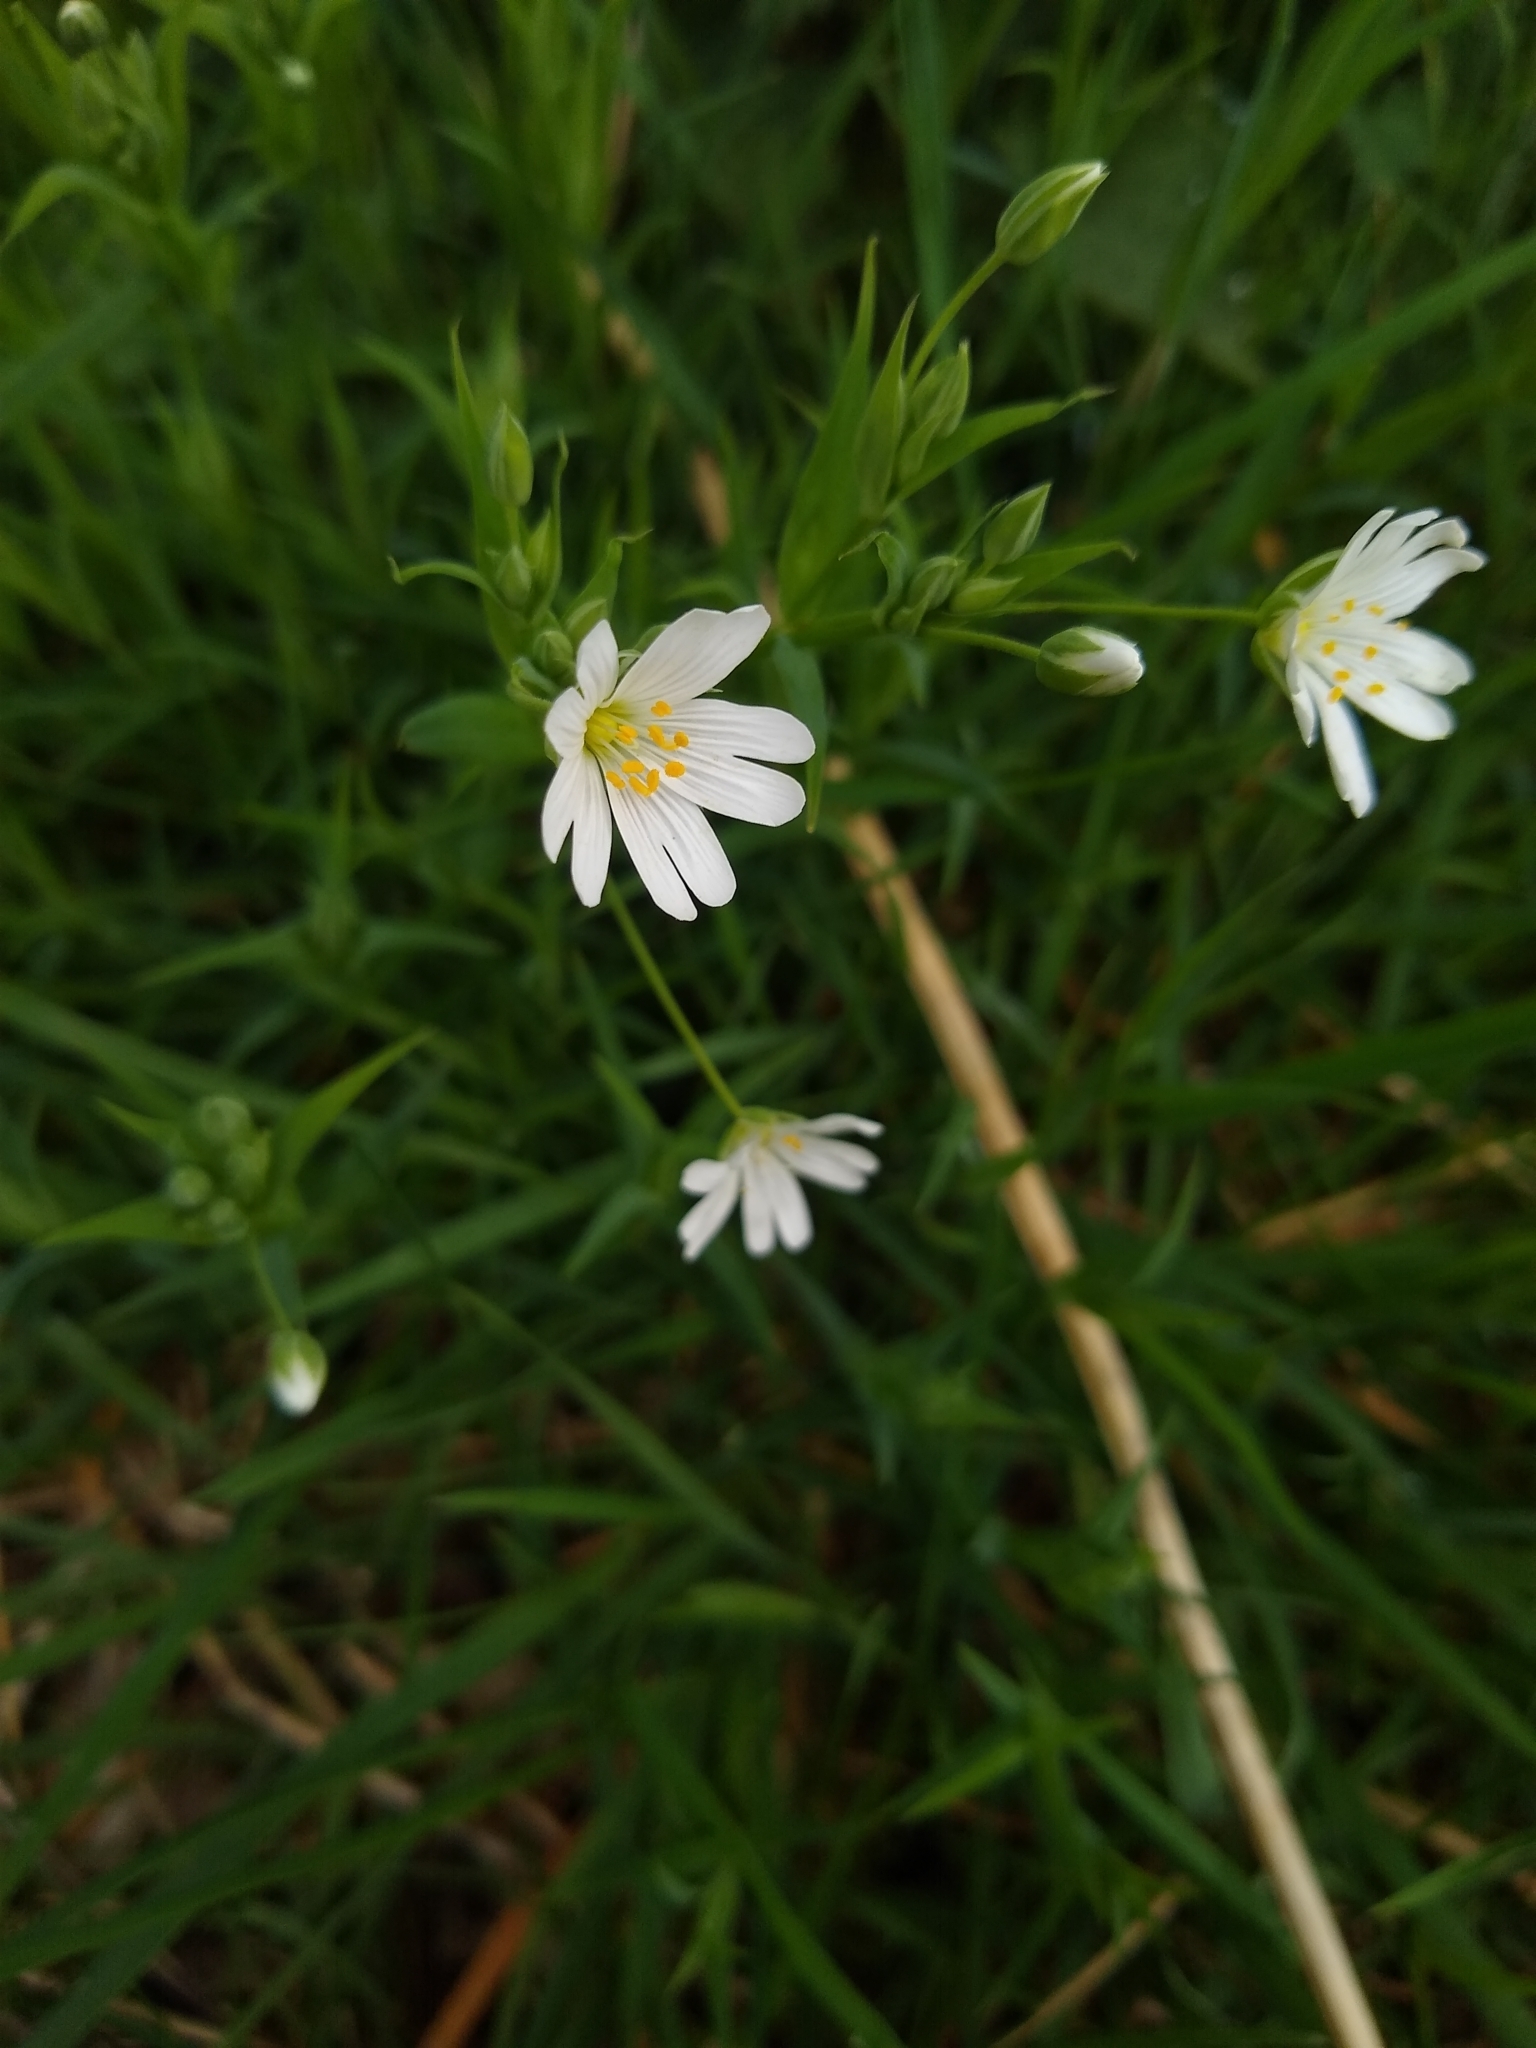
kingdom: Plantae
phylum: Tracheophyta
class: Magnoliopsida
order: Caryophyllales
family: Caryophyllaceae
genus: Rabelera
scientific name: Rabelera holostea
